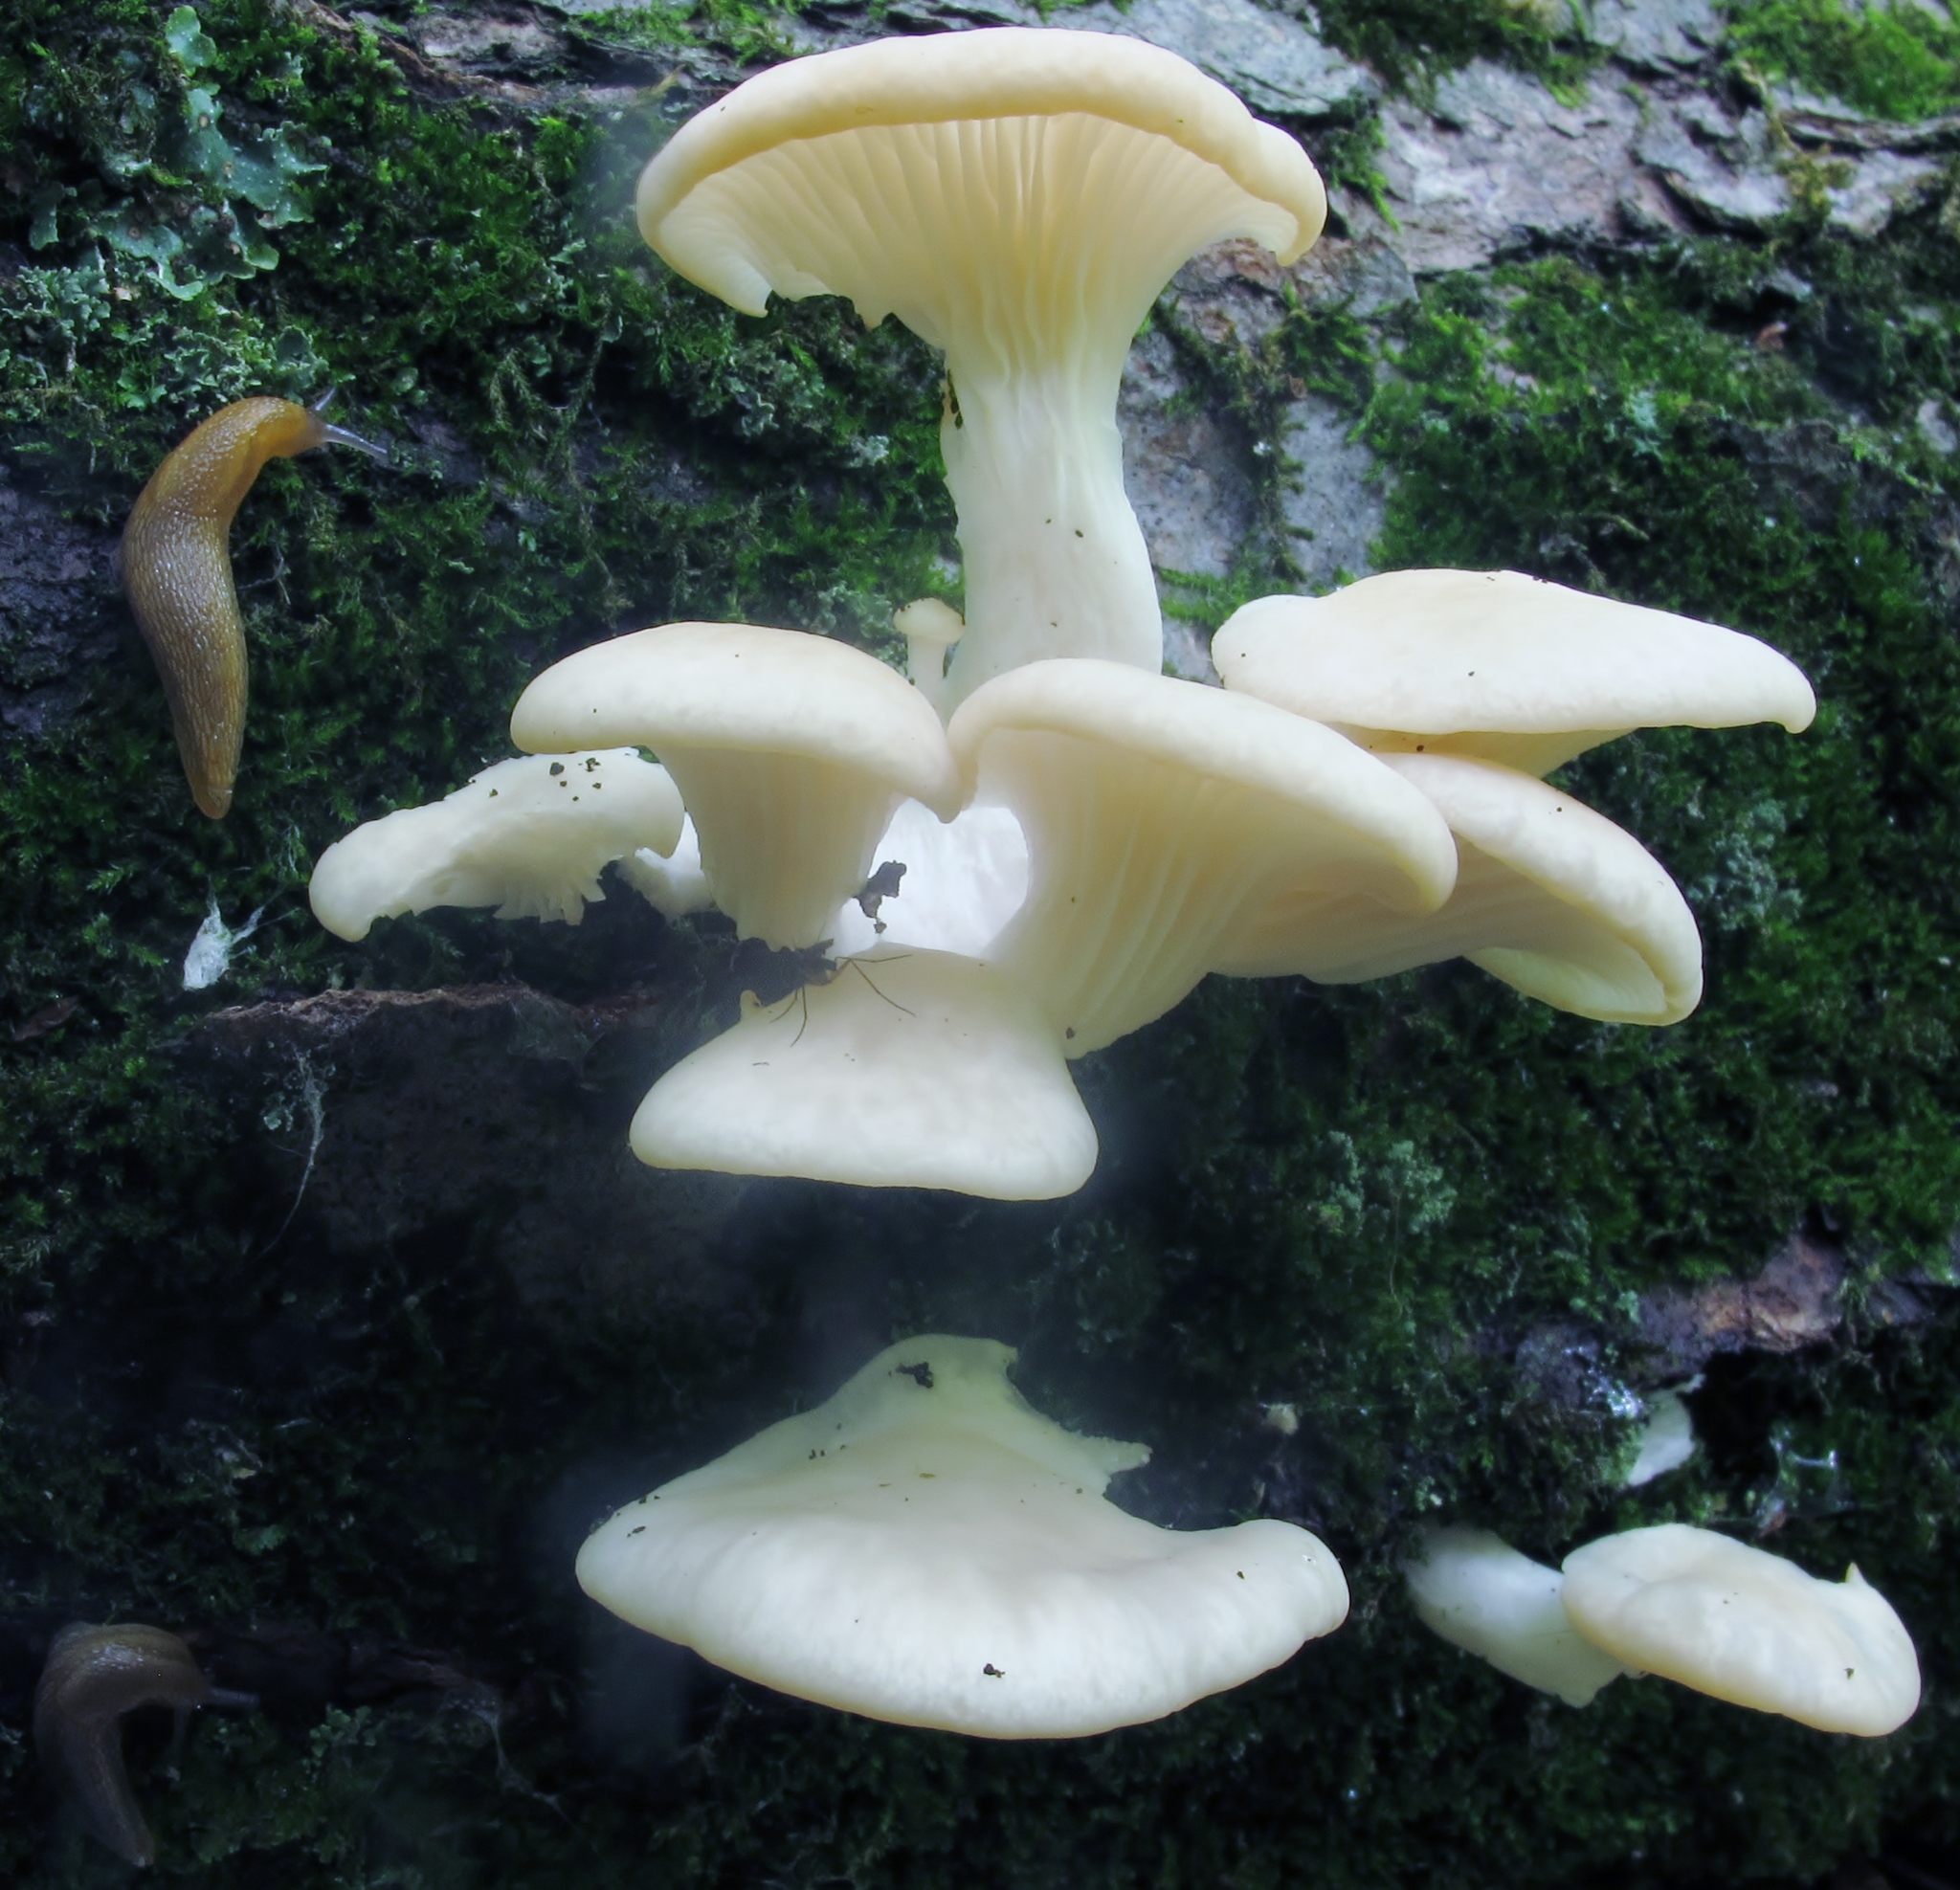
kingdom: Fungi
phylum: Basidiomycota
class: Agaricomycetes
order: Agaricales
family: Pleurotaceae
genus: Pleurotus
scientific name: Pleurotus pulmonarius
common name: Pale oyster
